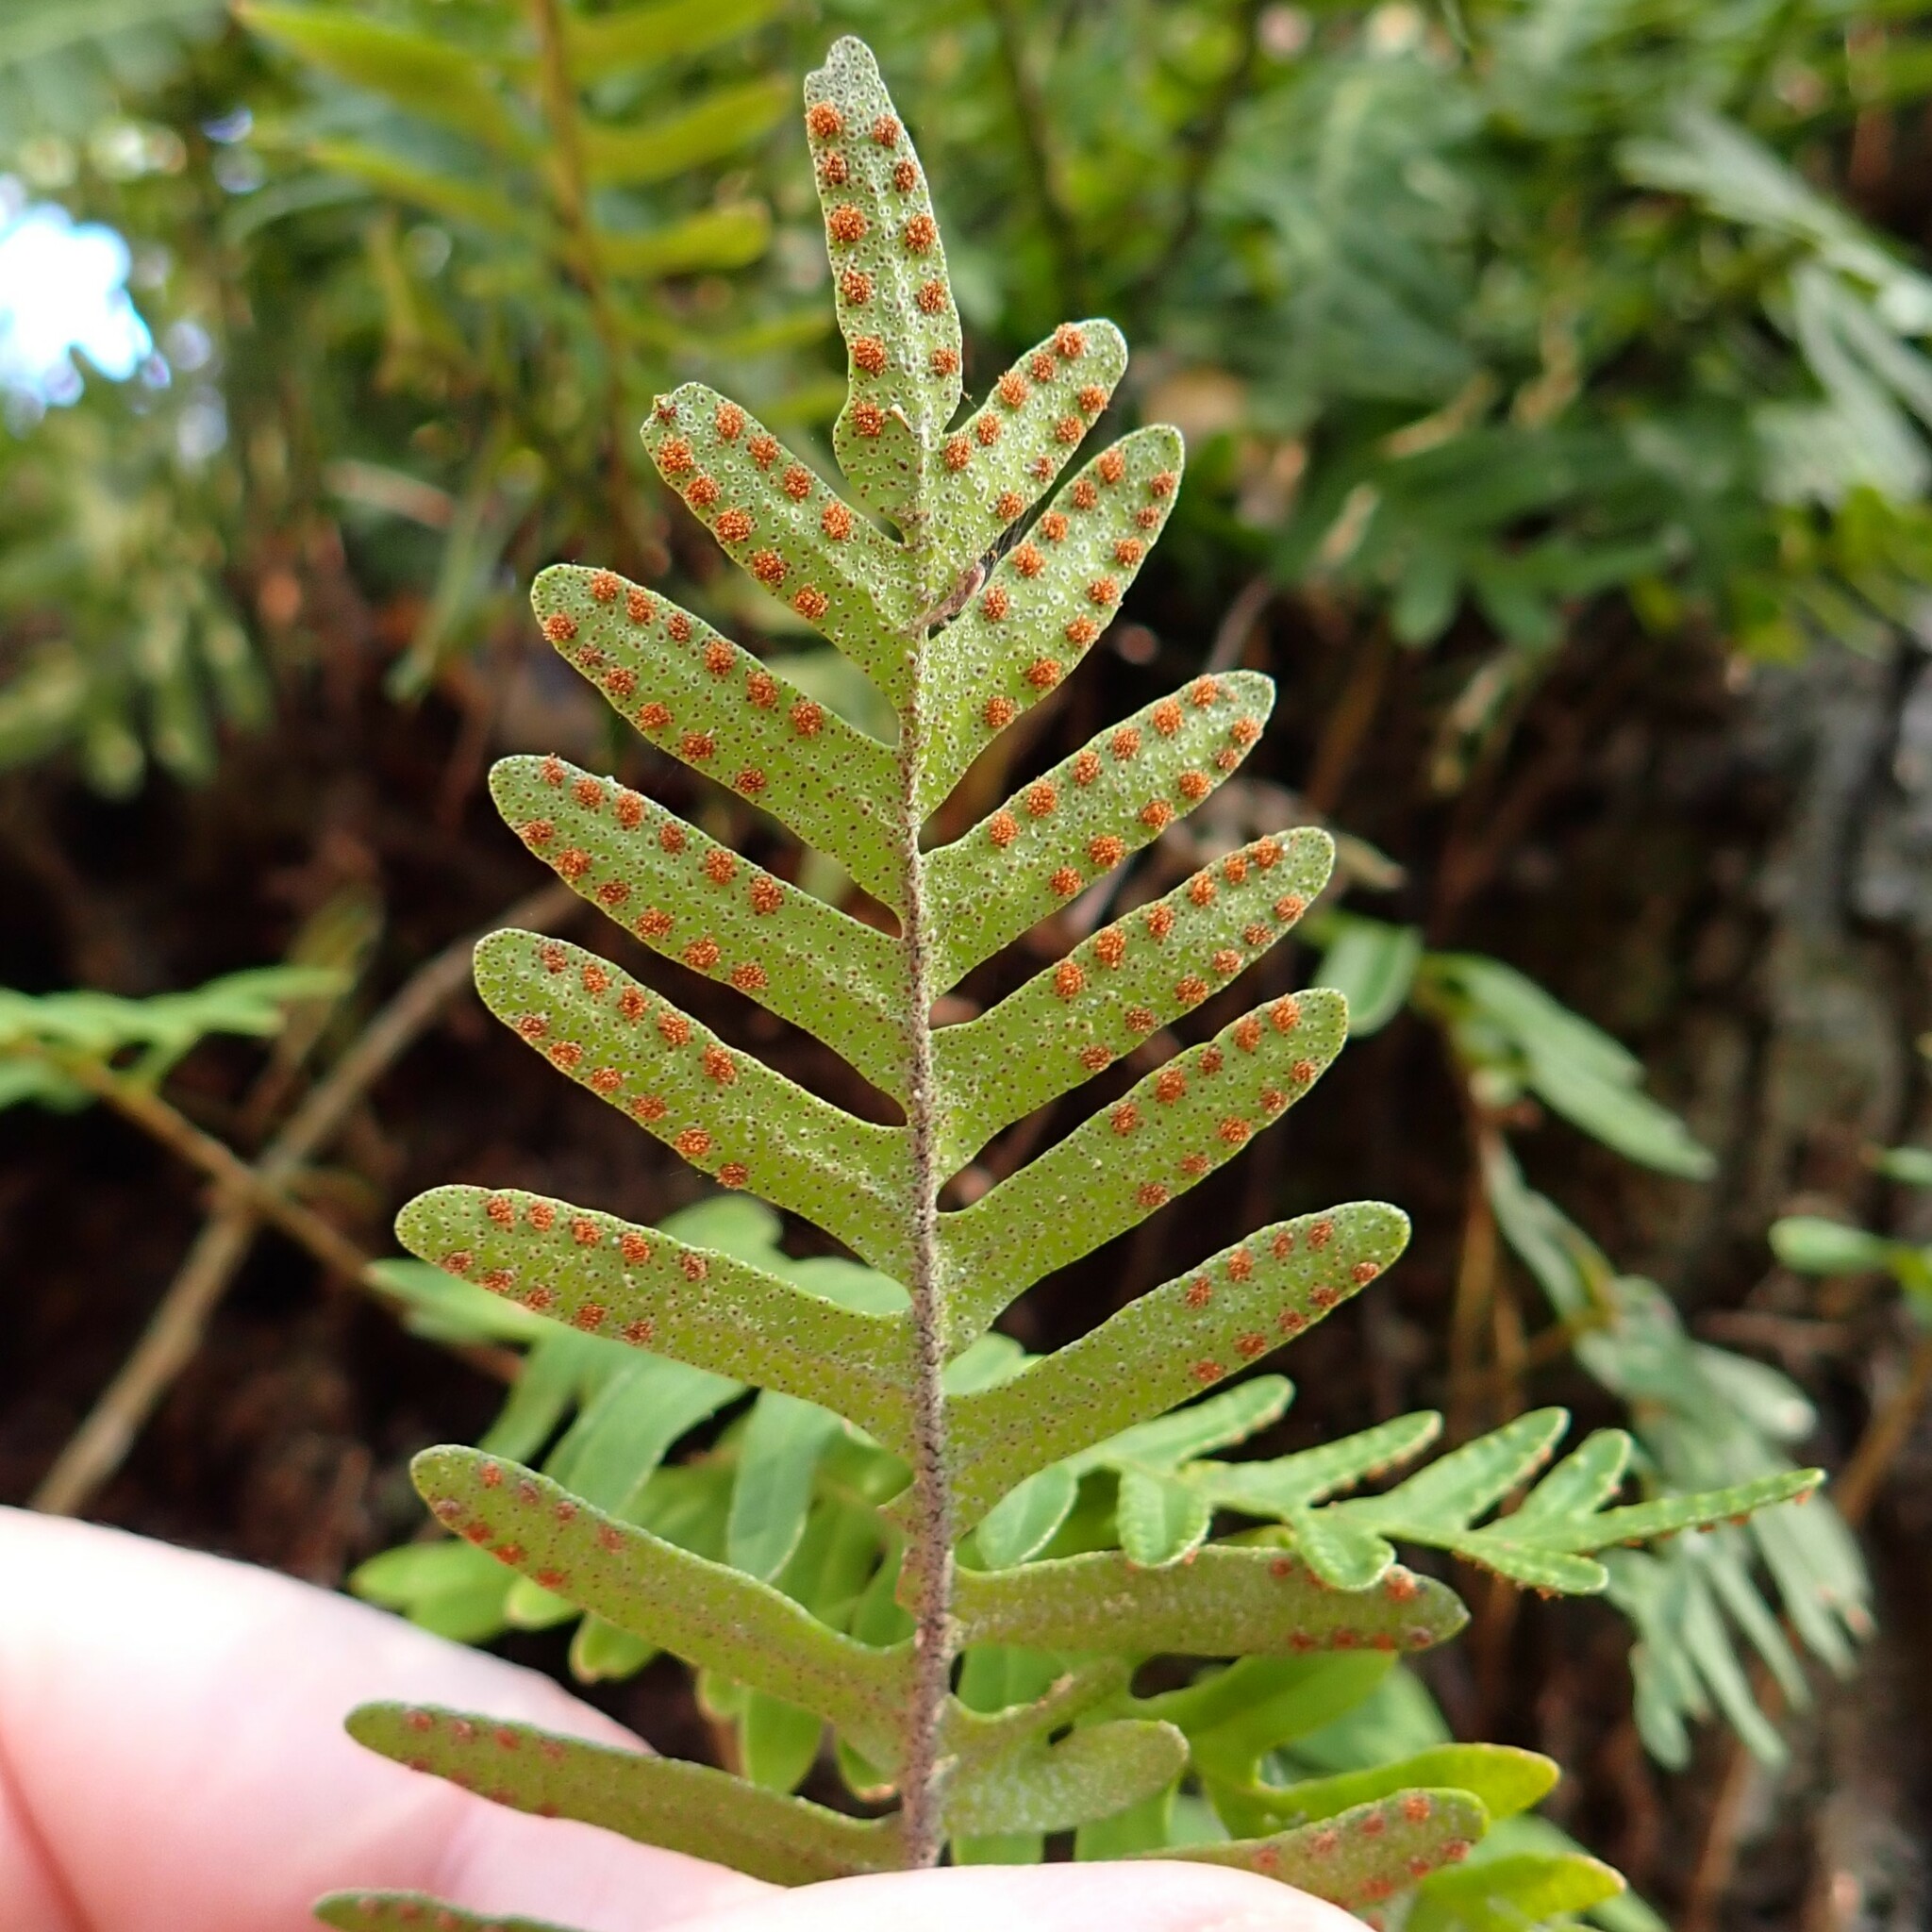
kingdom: Plantae
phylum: Tracheophyta
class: Polypodiopsida
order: Polypodiales
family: Polypodiaceae
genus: Pleopeltis
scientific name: Pleopeltis michauxiana
